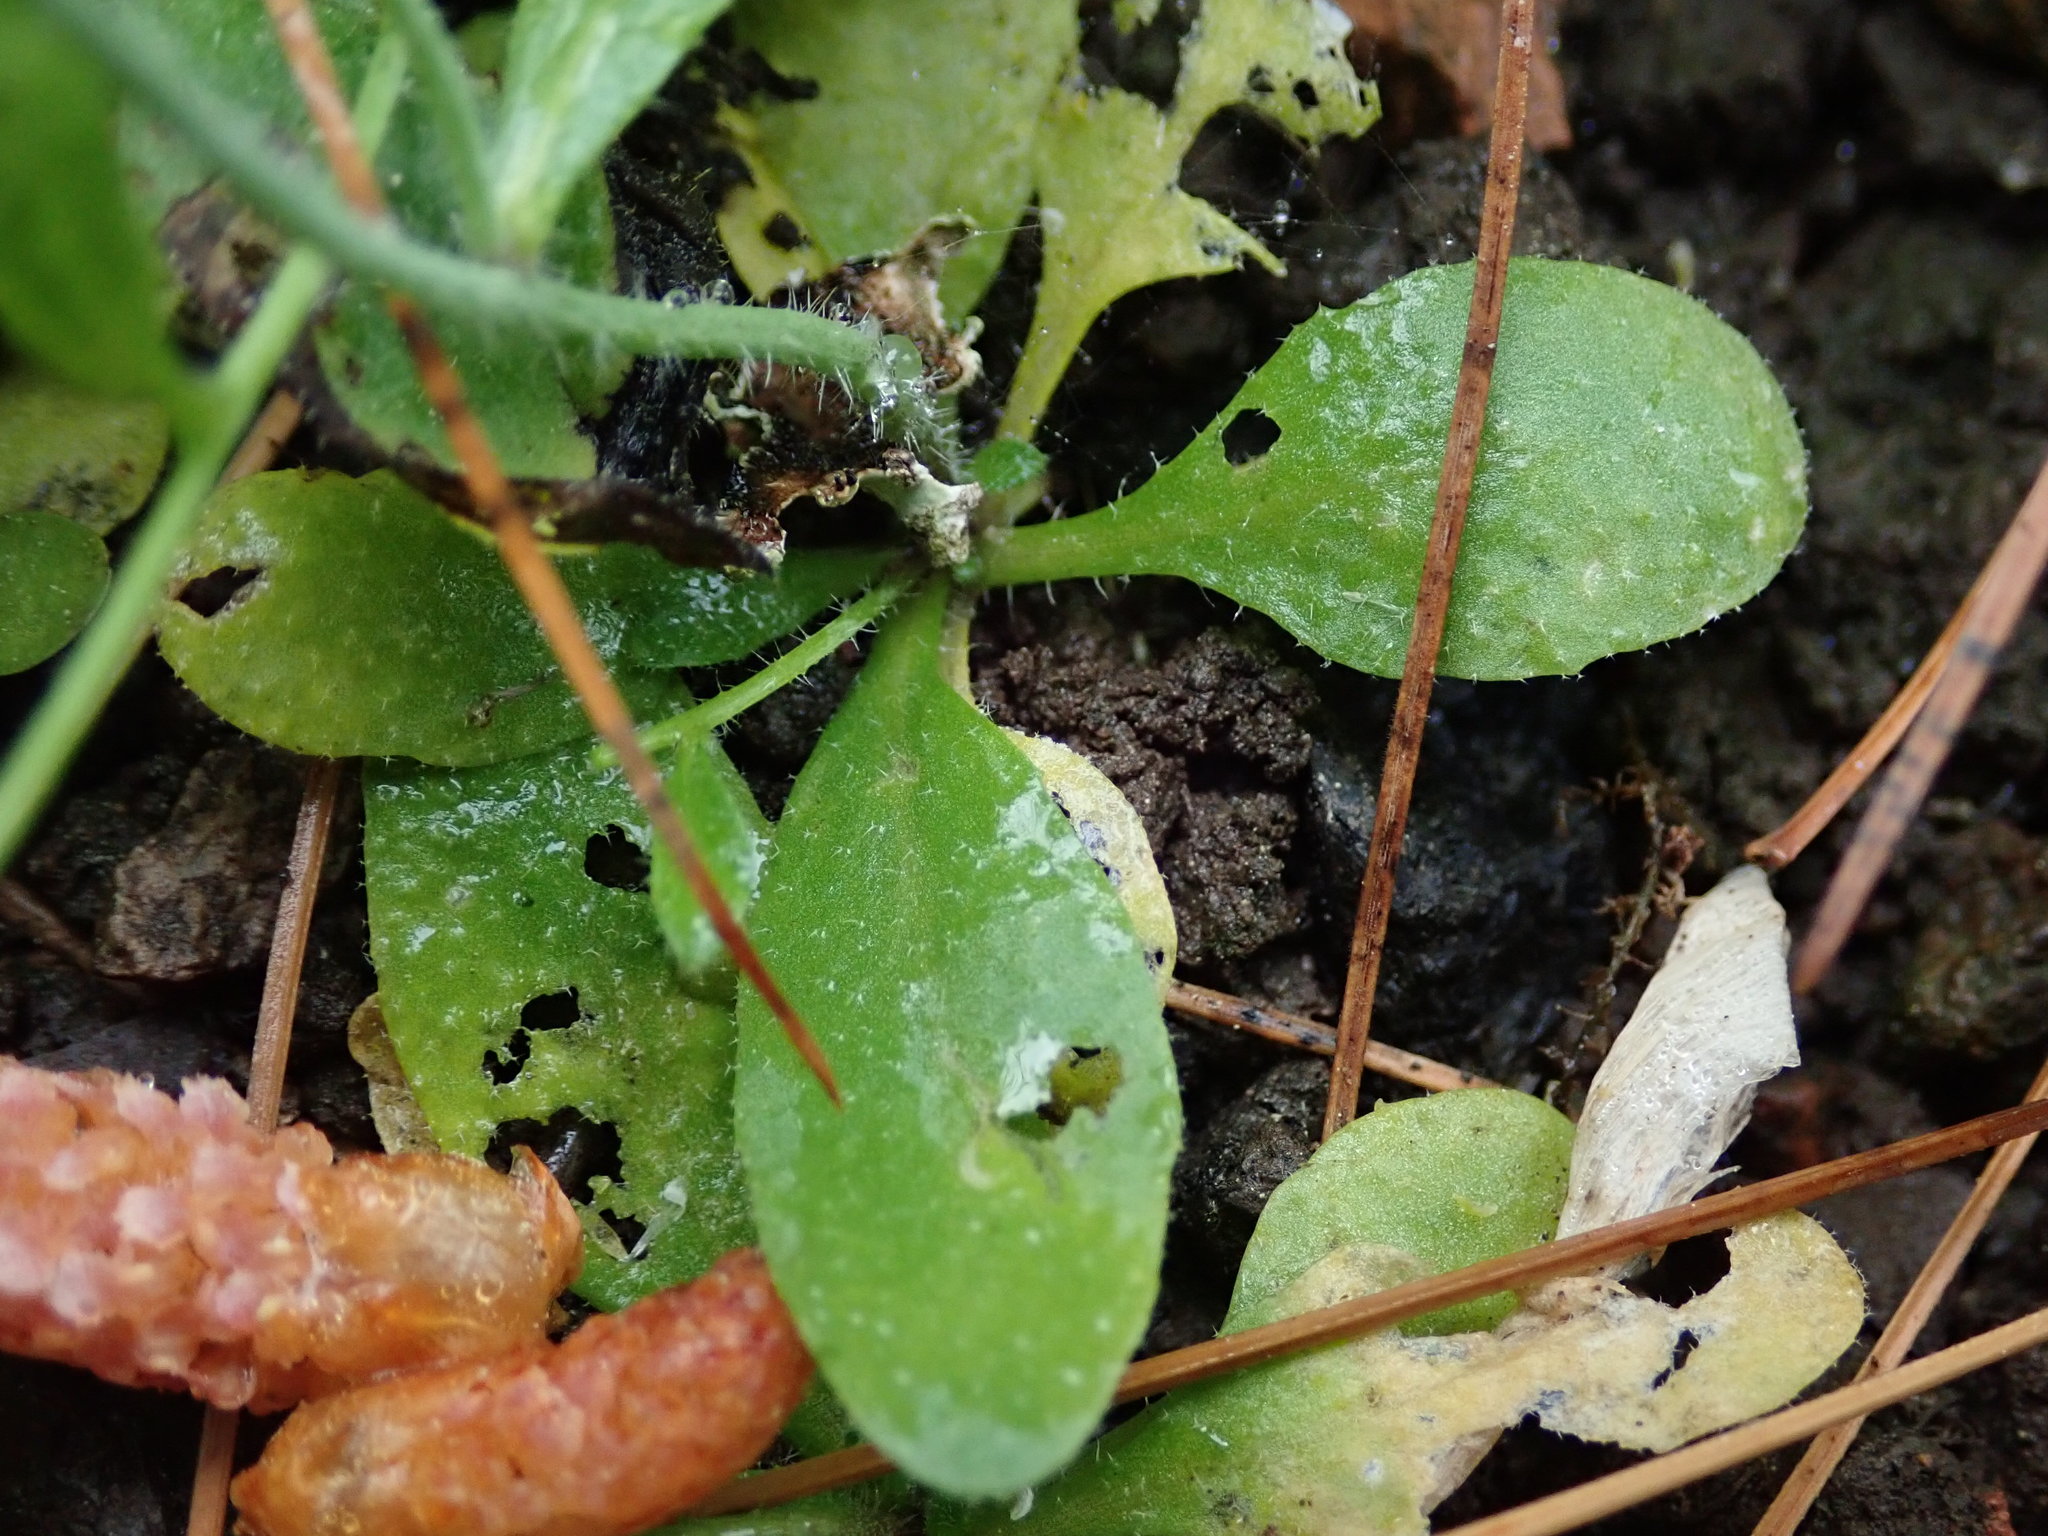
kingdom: Plantae
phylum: Tracheophyta
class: Magnoliopsida
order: Brassicales
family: Brassicaceae
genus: Arabidopsis
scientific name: Arabidopsis thaliana
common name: Thale cress
